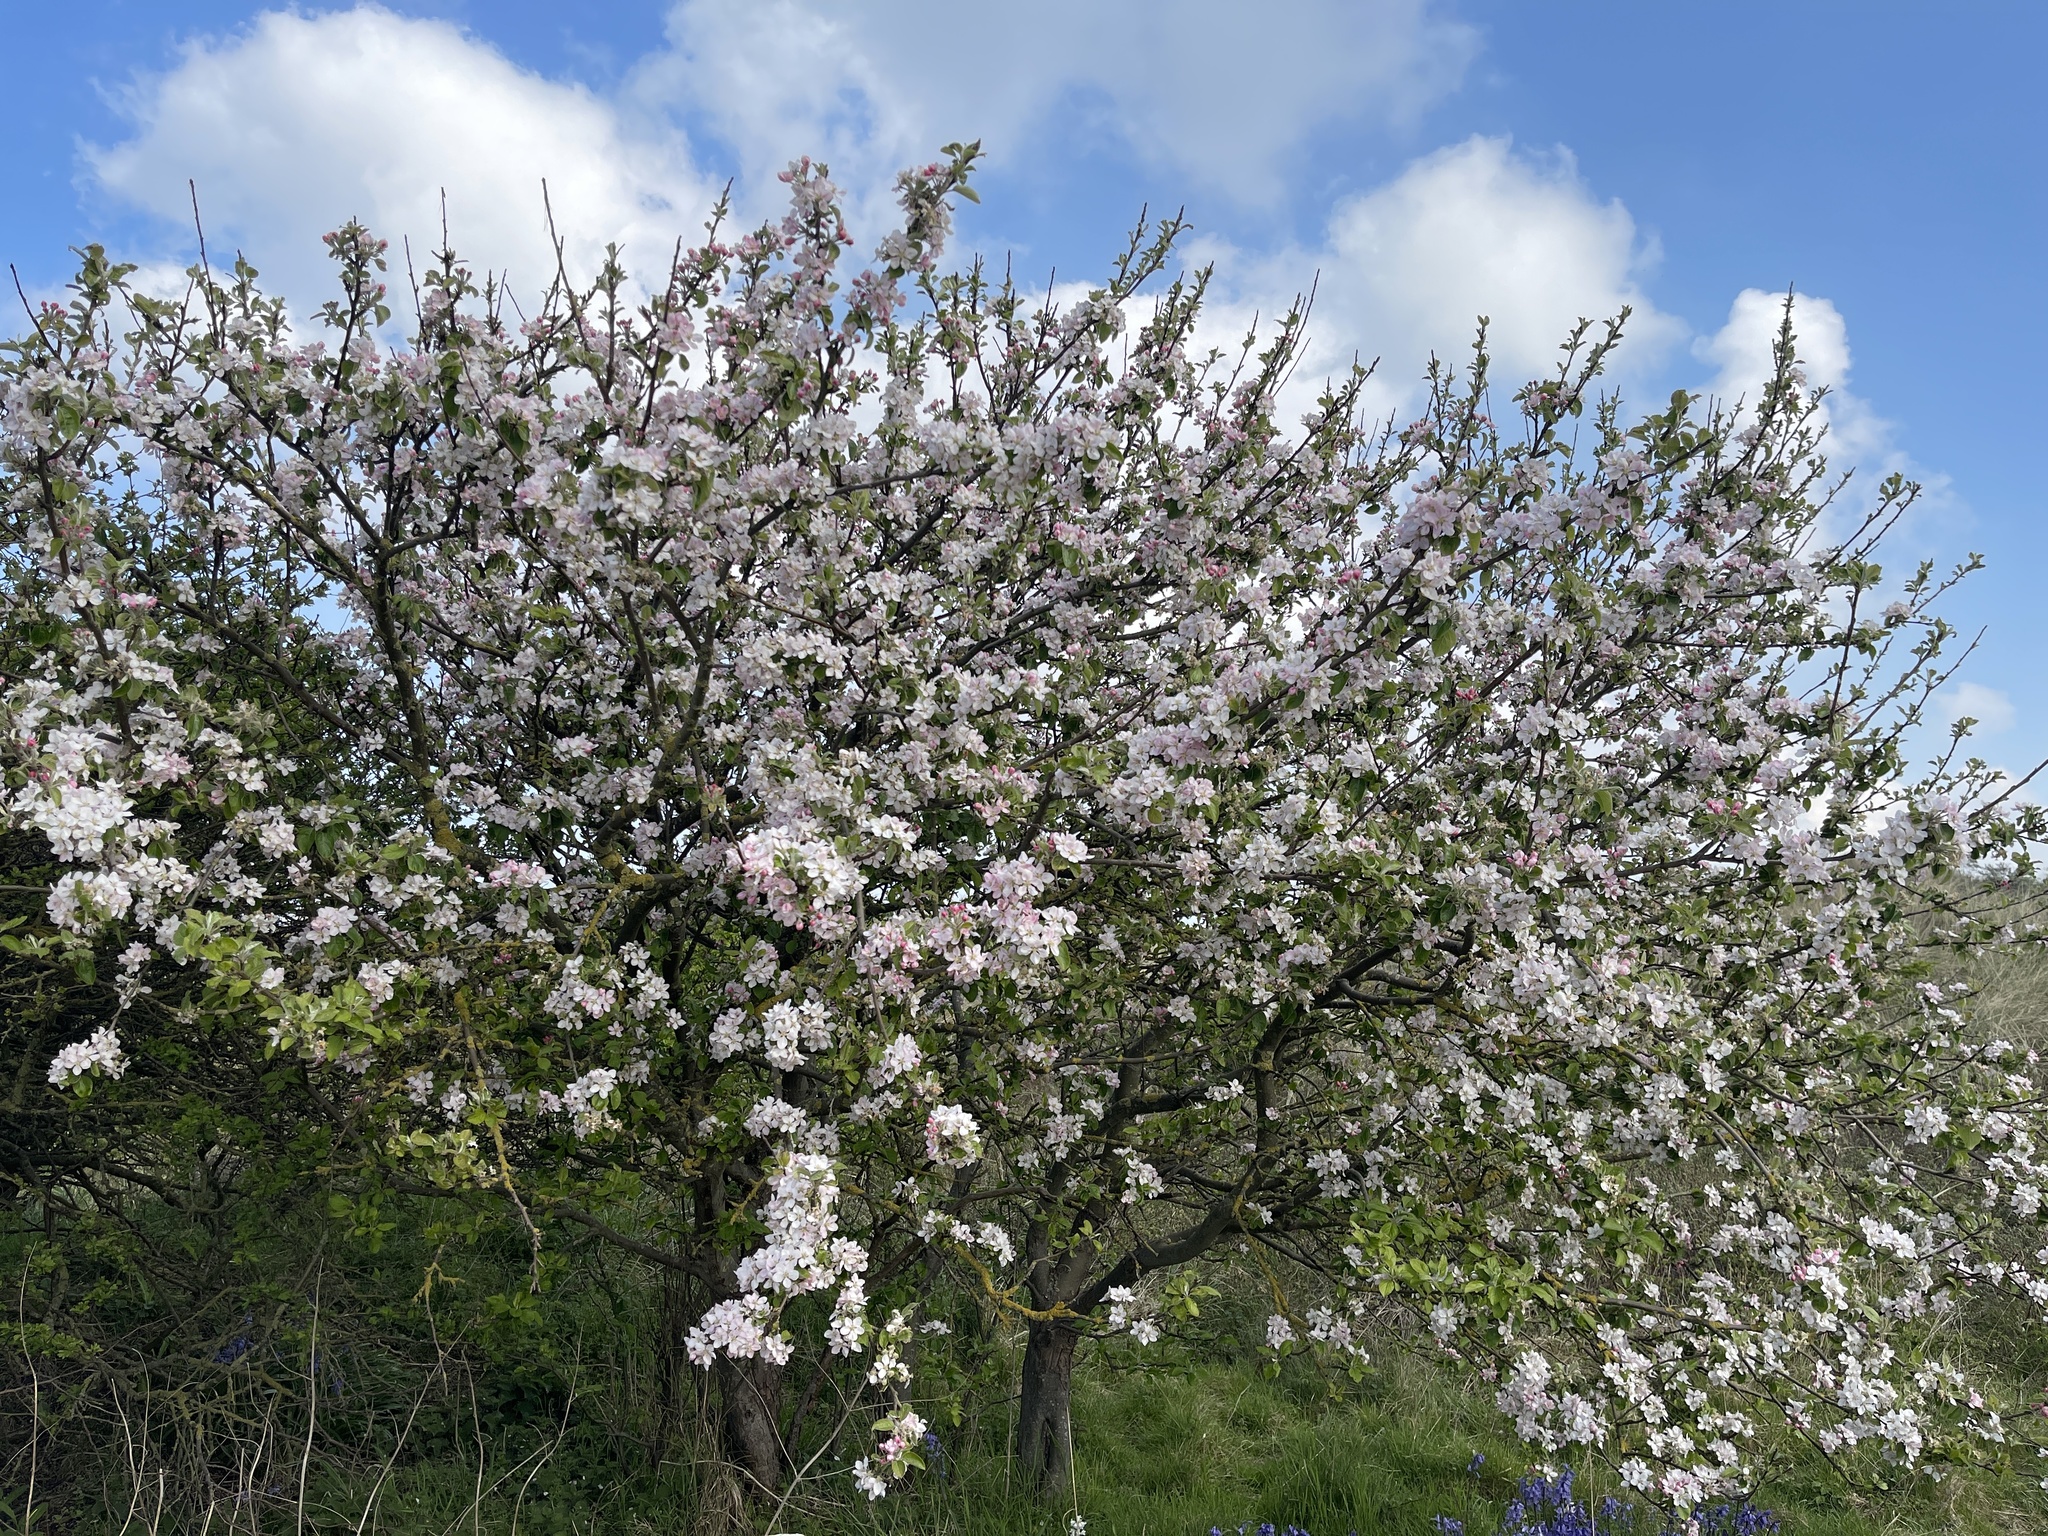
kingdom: Plantae
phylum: Tracheophyta
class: Magnoliopsida
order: Rosales
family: Rosaceae
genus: Malus
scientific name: Malus domestica
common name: Apple
